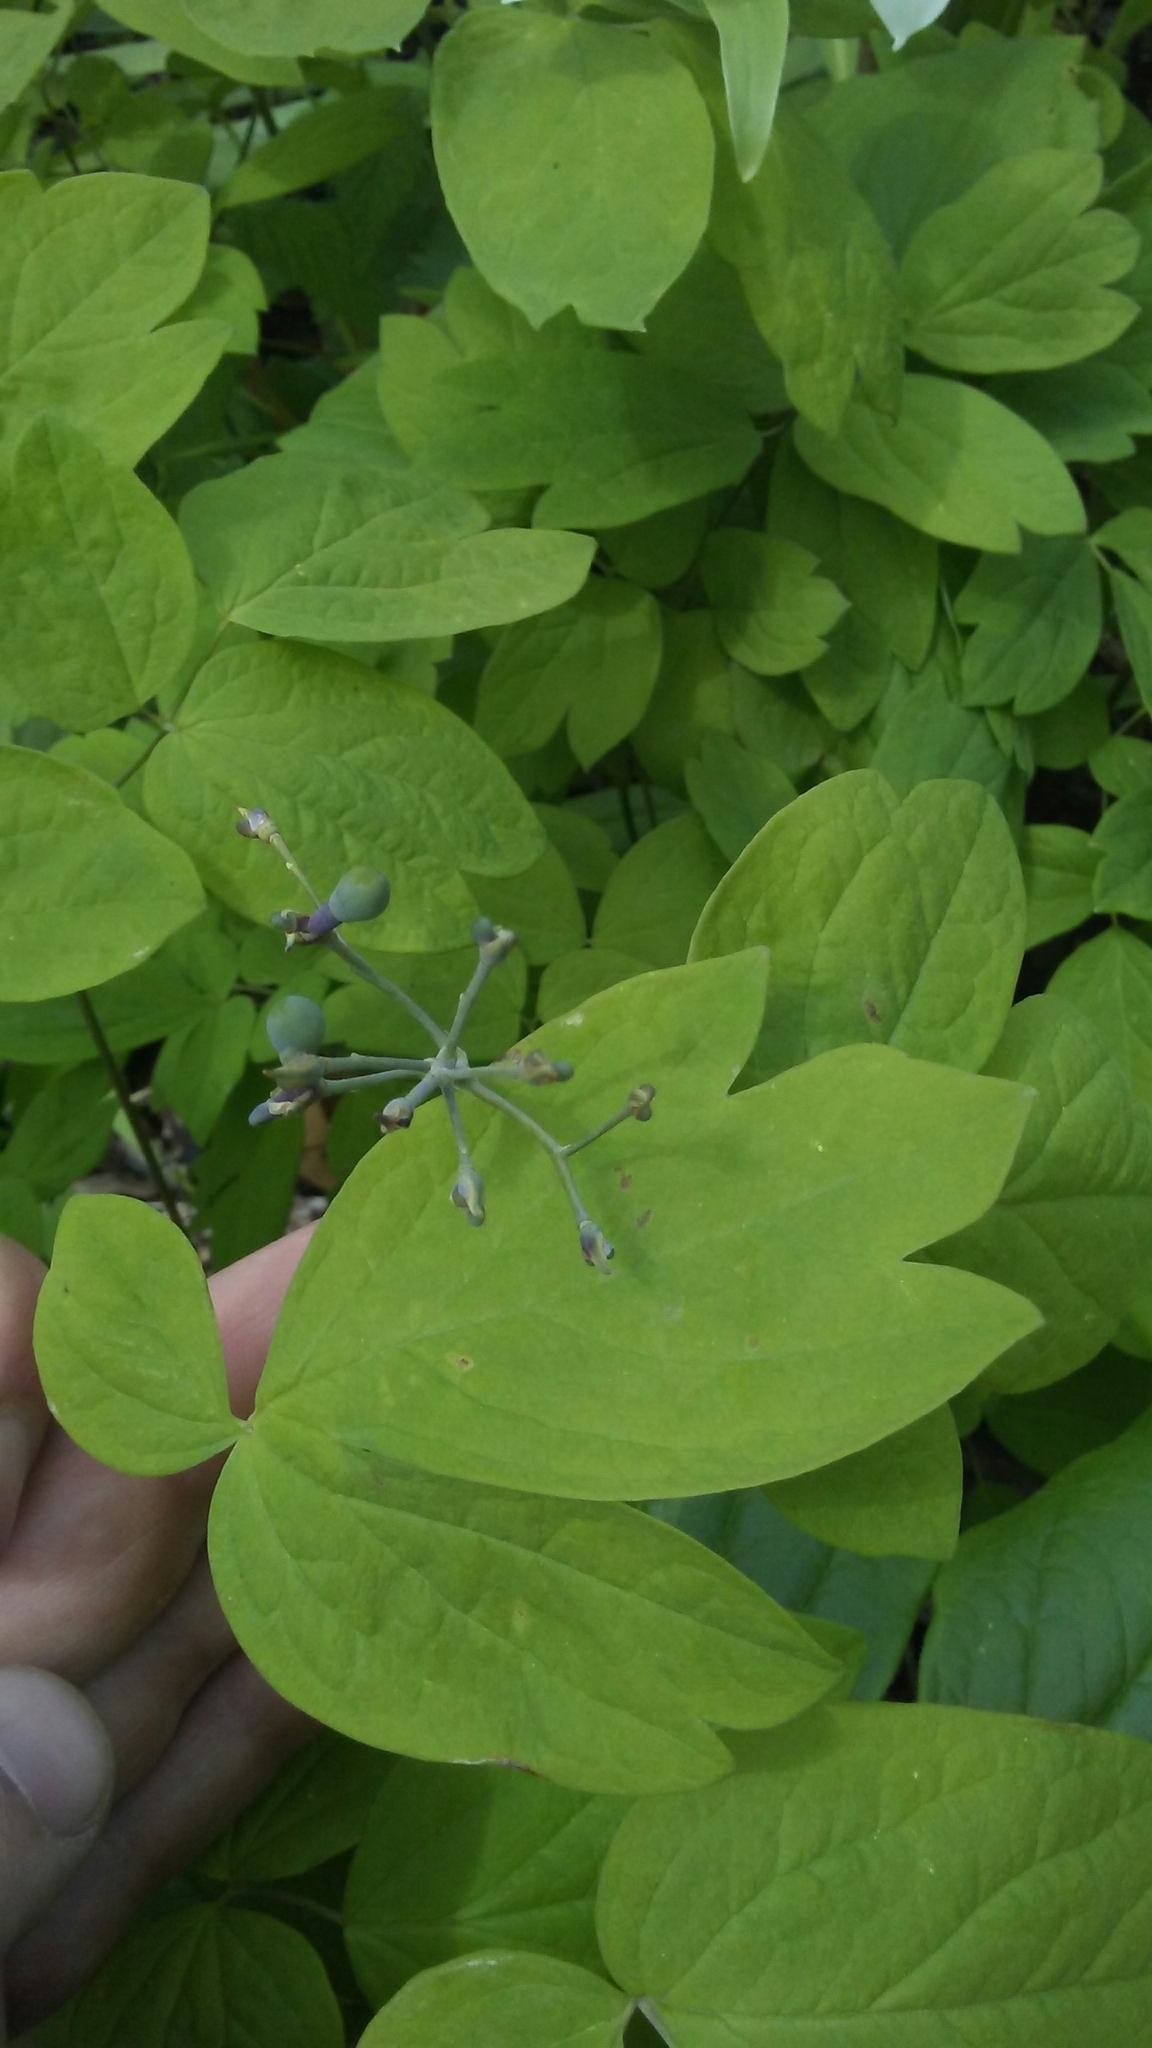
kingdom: Plantae
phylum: Tracheophyta
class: Magnoliopsida
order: Ranunculales
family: Berberidaceae
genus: Caulophyllum
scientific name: Caulophyllum thalictroides
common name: Blue cohosh
